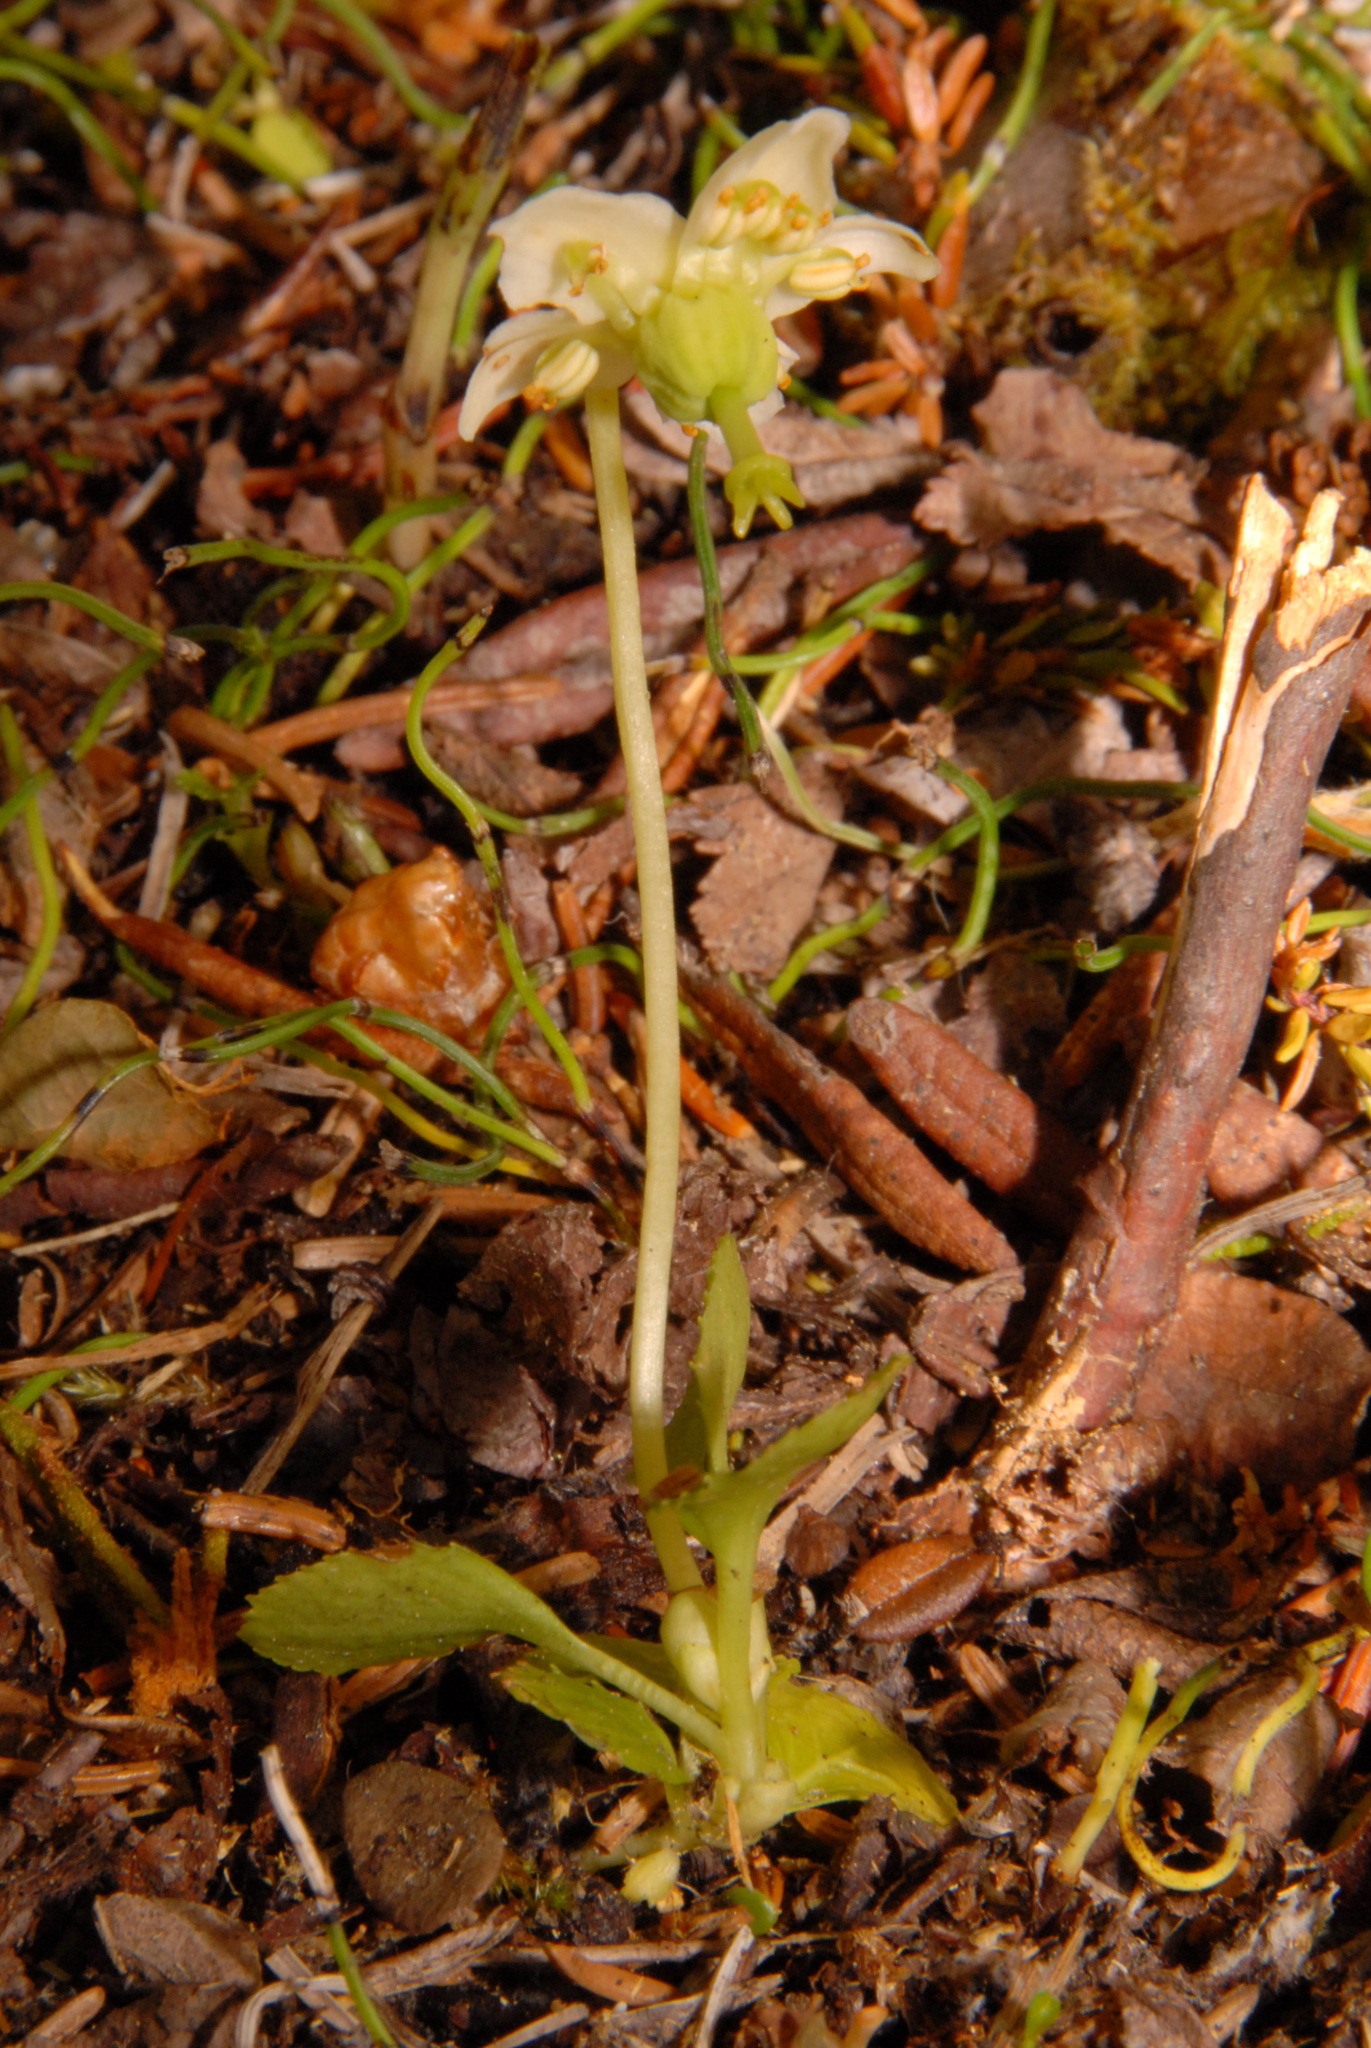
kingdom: Plantae
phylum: Tracheophyta
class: Magnoliopsida
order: Ericales
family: Ericaceae
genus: Moneses
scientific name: Moneses uniflora
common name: One-flowered wintergreen
